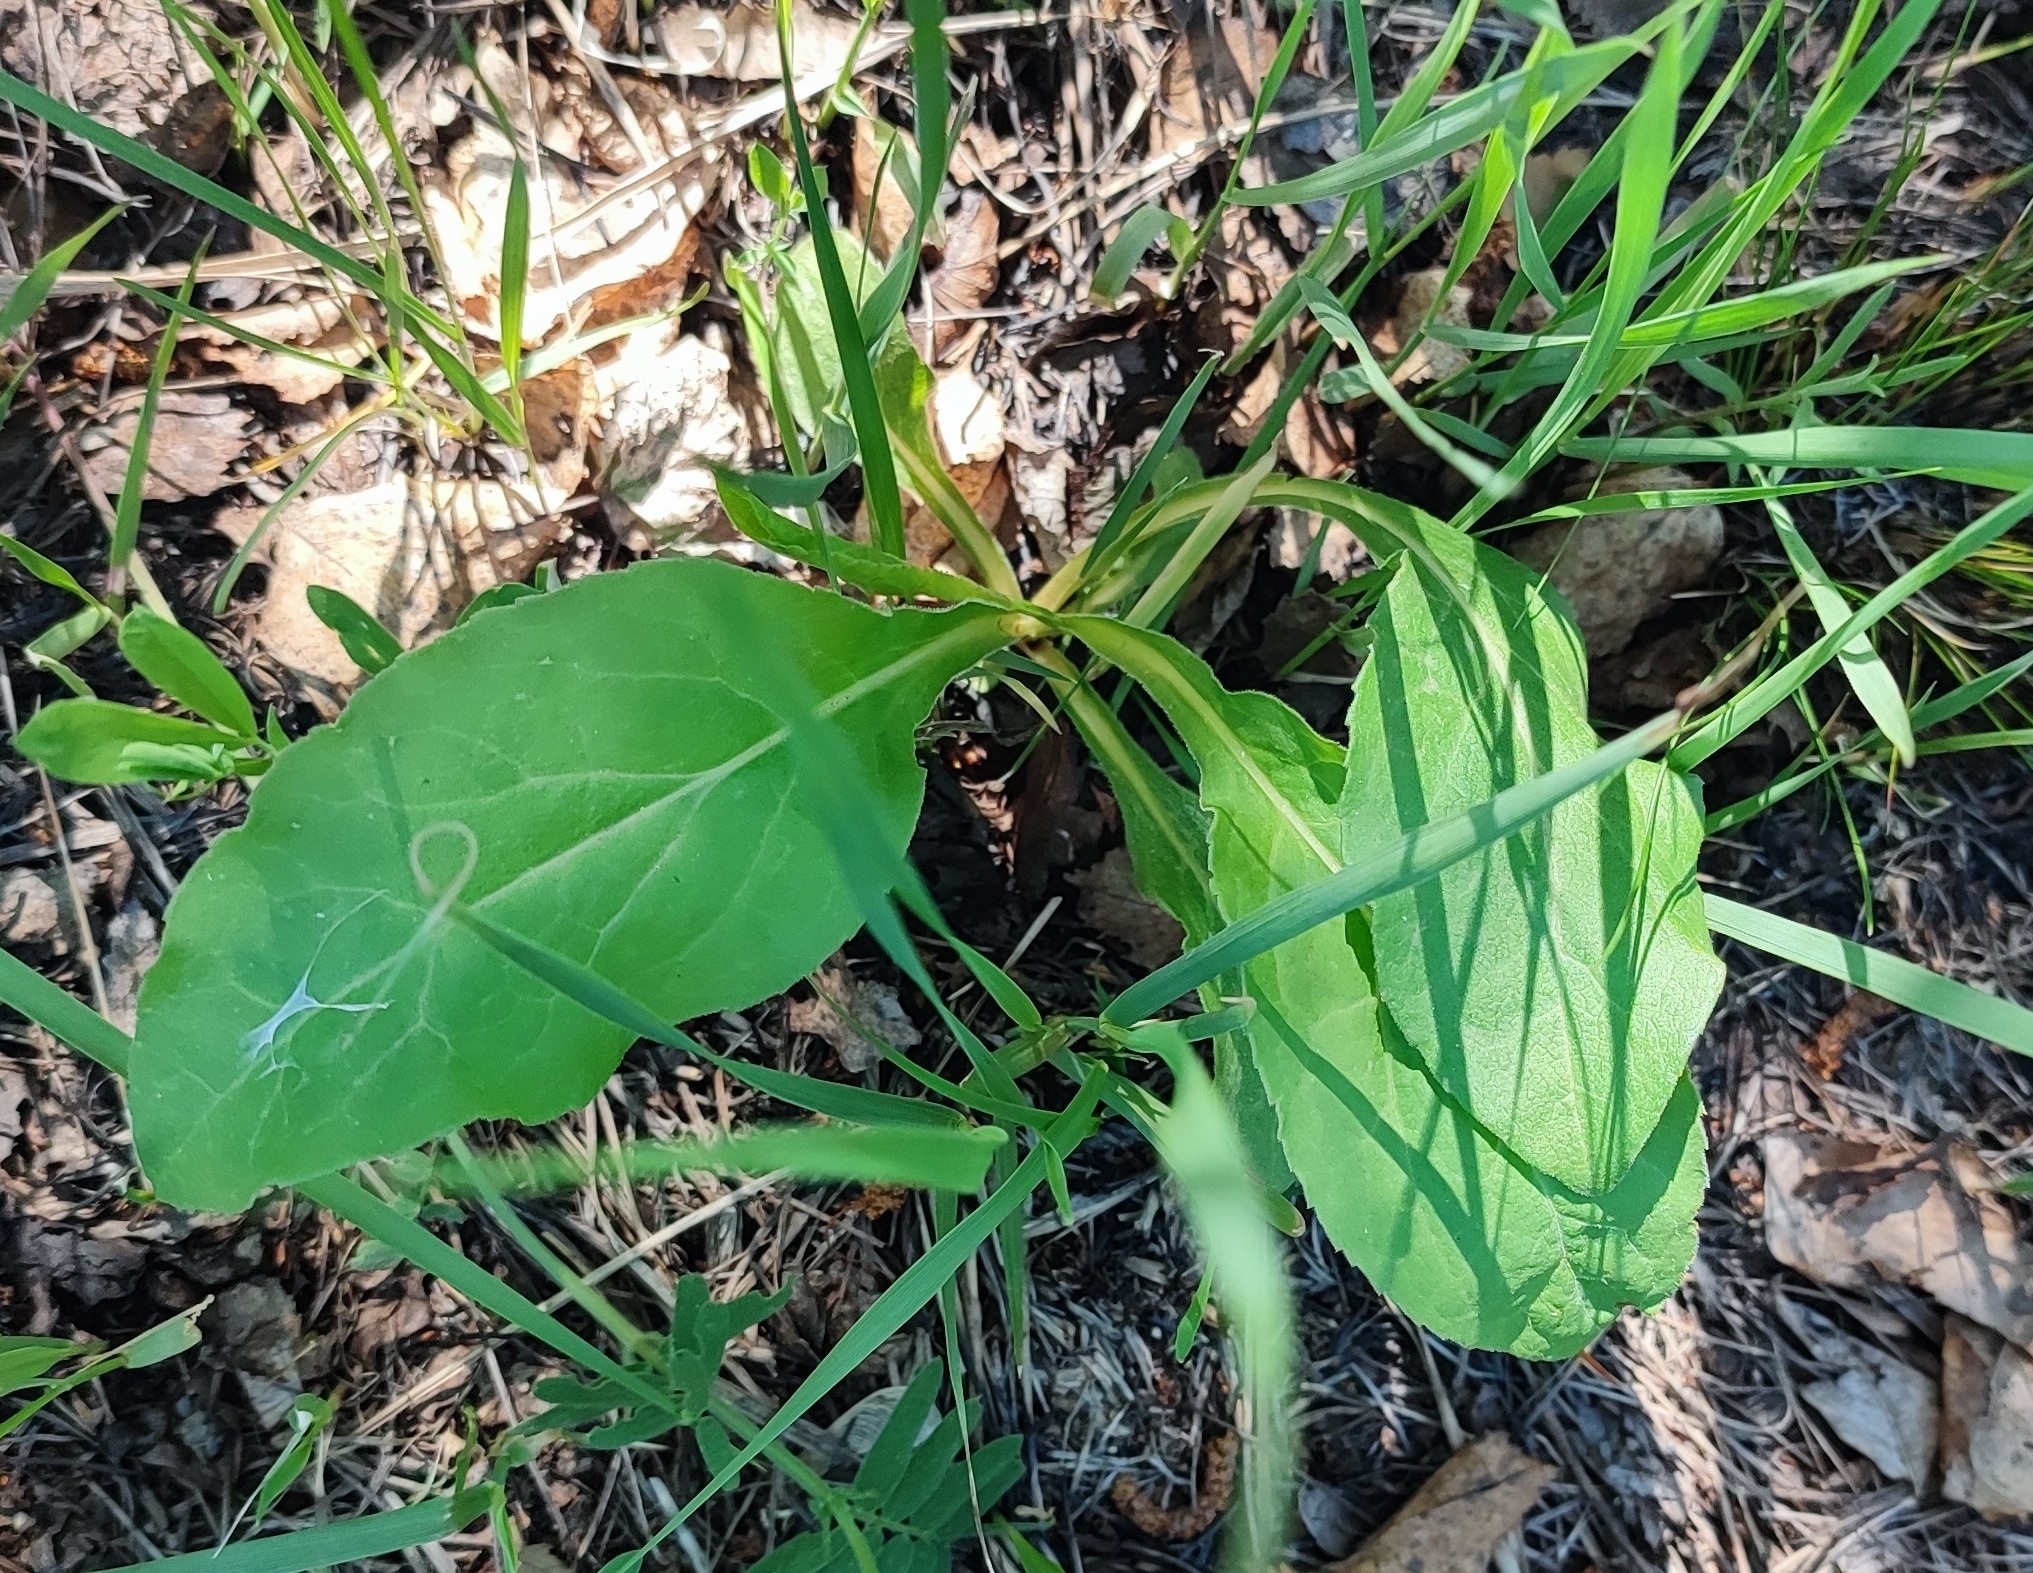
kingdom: Plantae
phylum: Tracheophyta
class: Magnoliopsida
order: Asterales
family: Asteraceae
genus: Solidago
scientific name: Solidago virgaurea
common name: Goldenrod
